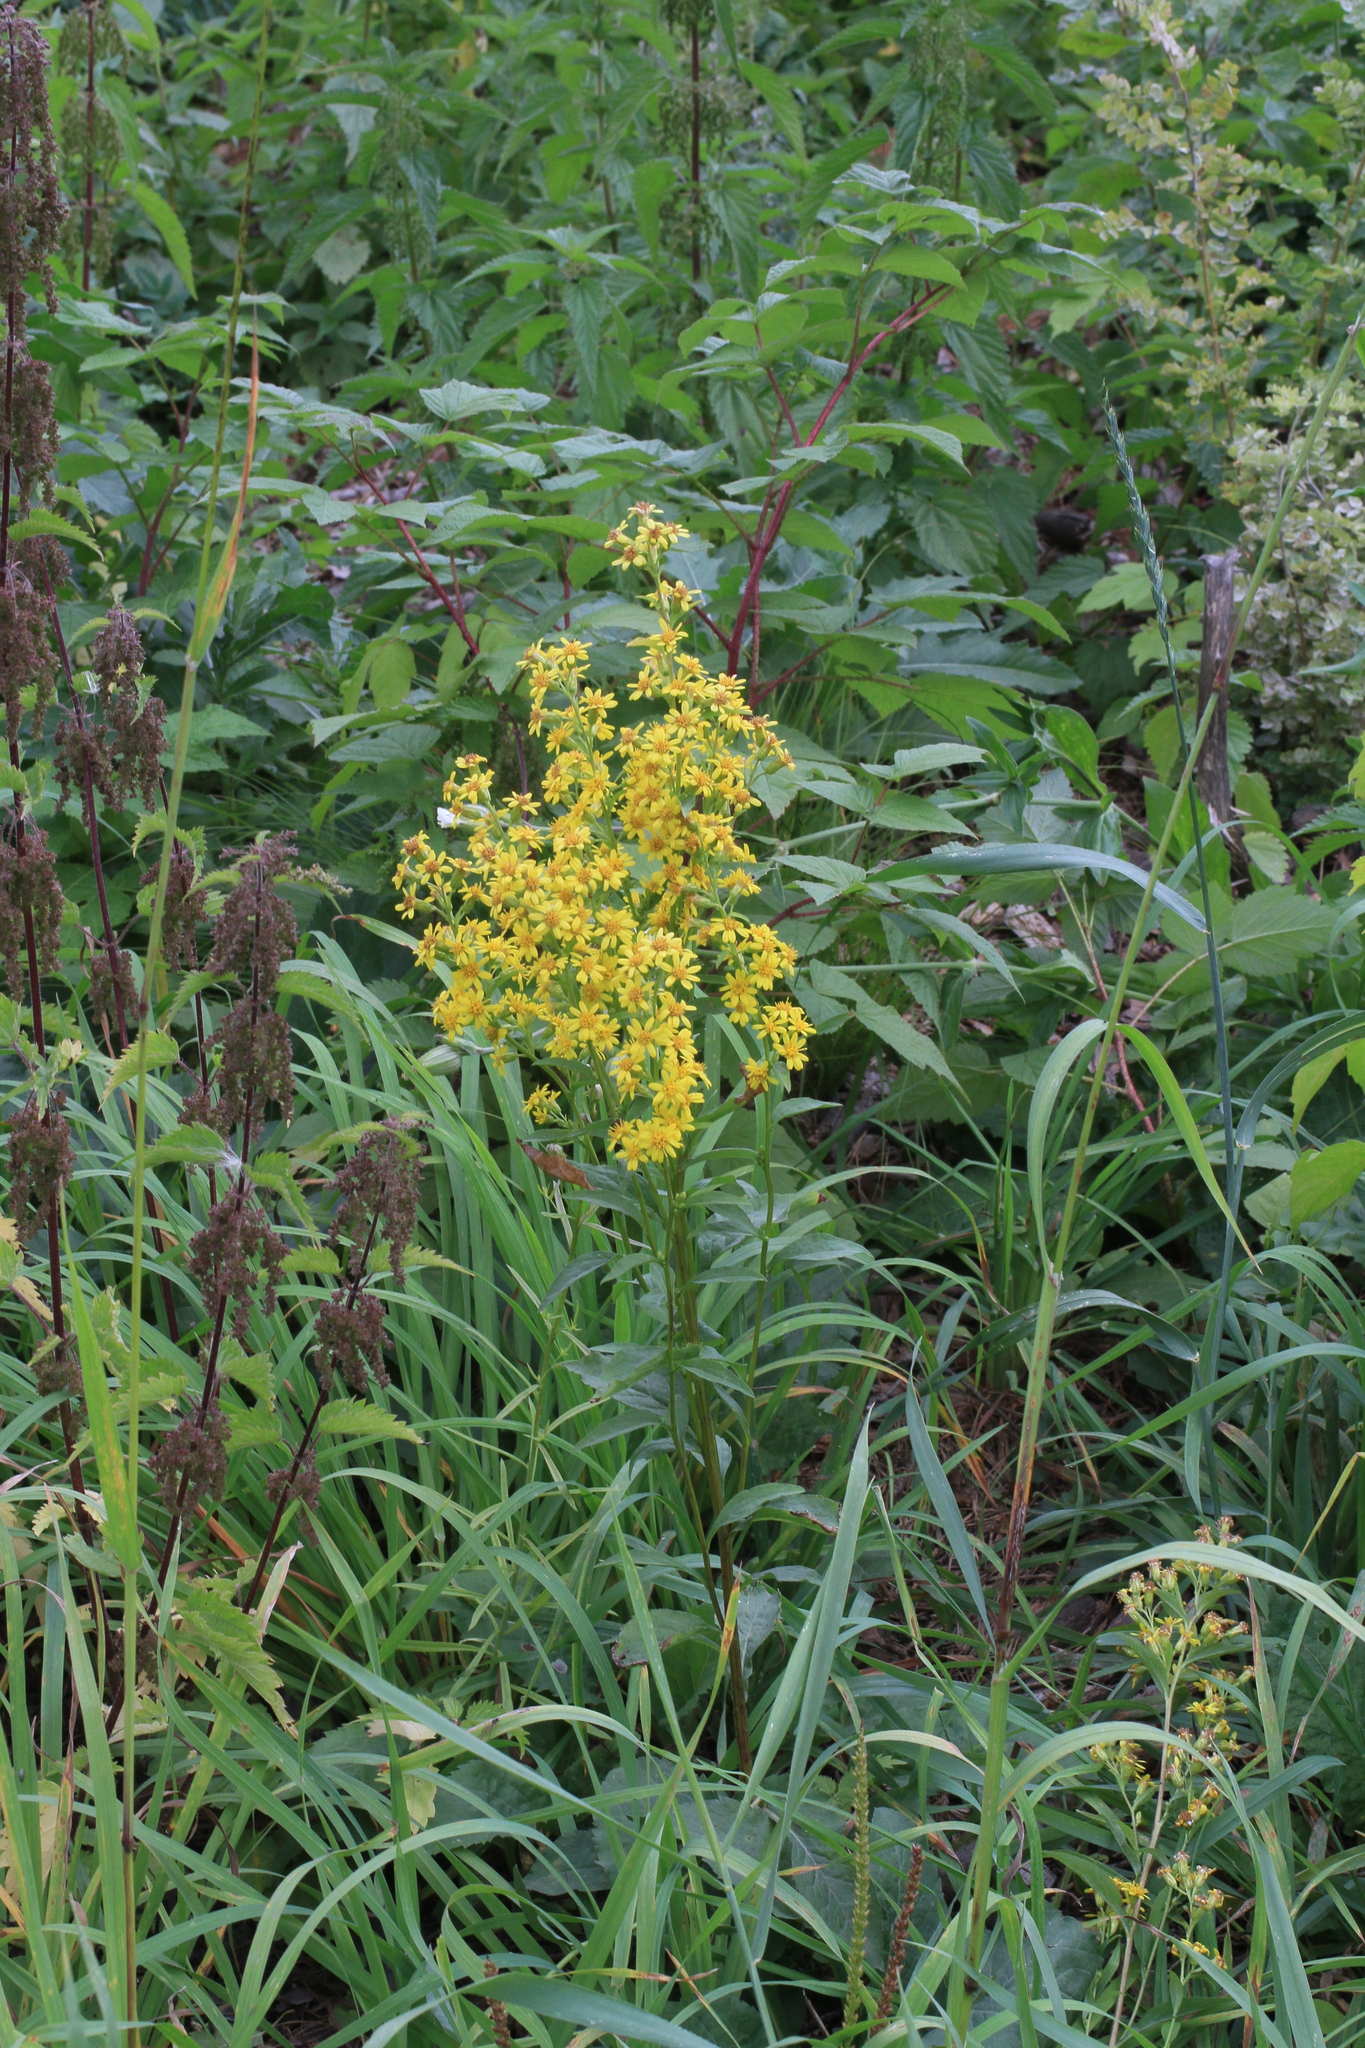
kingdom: Plantae
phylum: Tracheophyta
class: Magnoliopsida
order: Asterales
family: Asteraceae
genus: Solidago
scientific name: Solidago virgaurea
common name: Goldenrod
